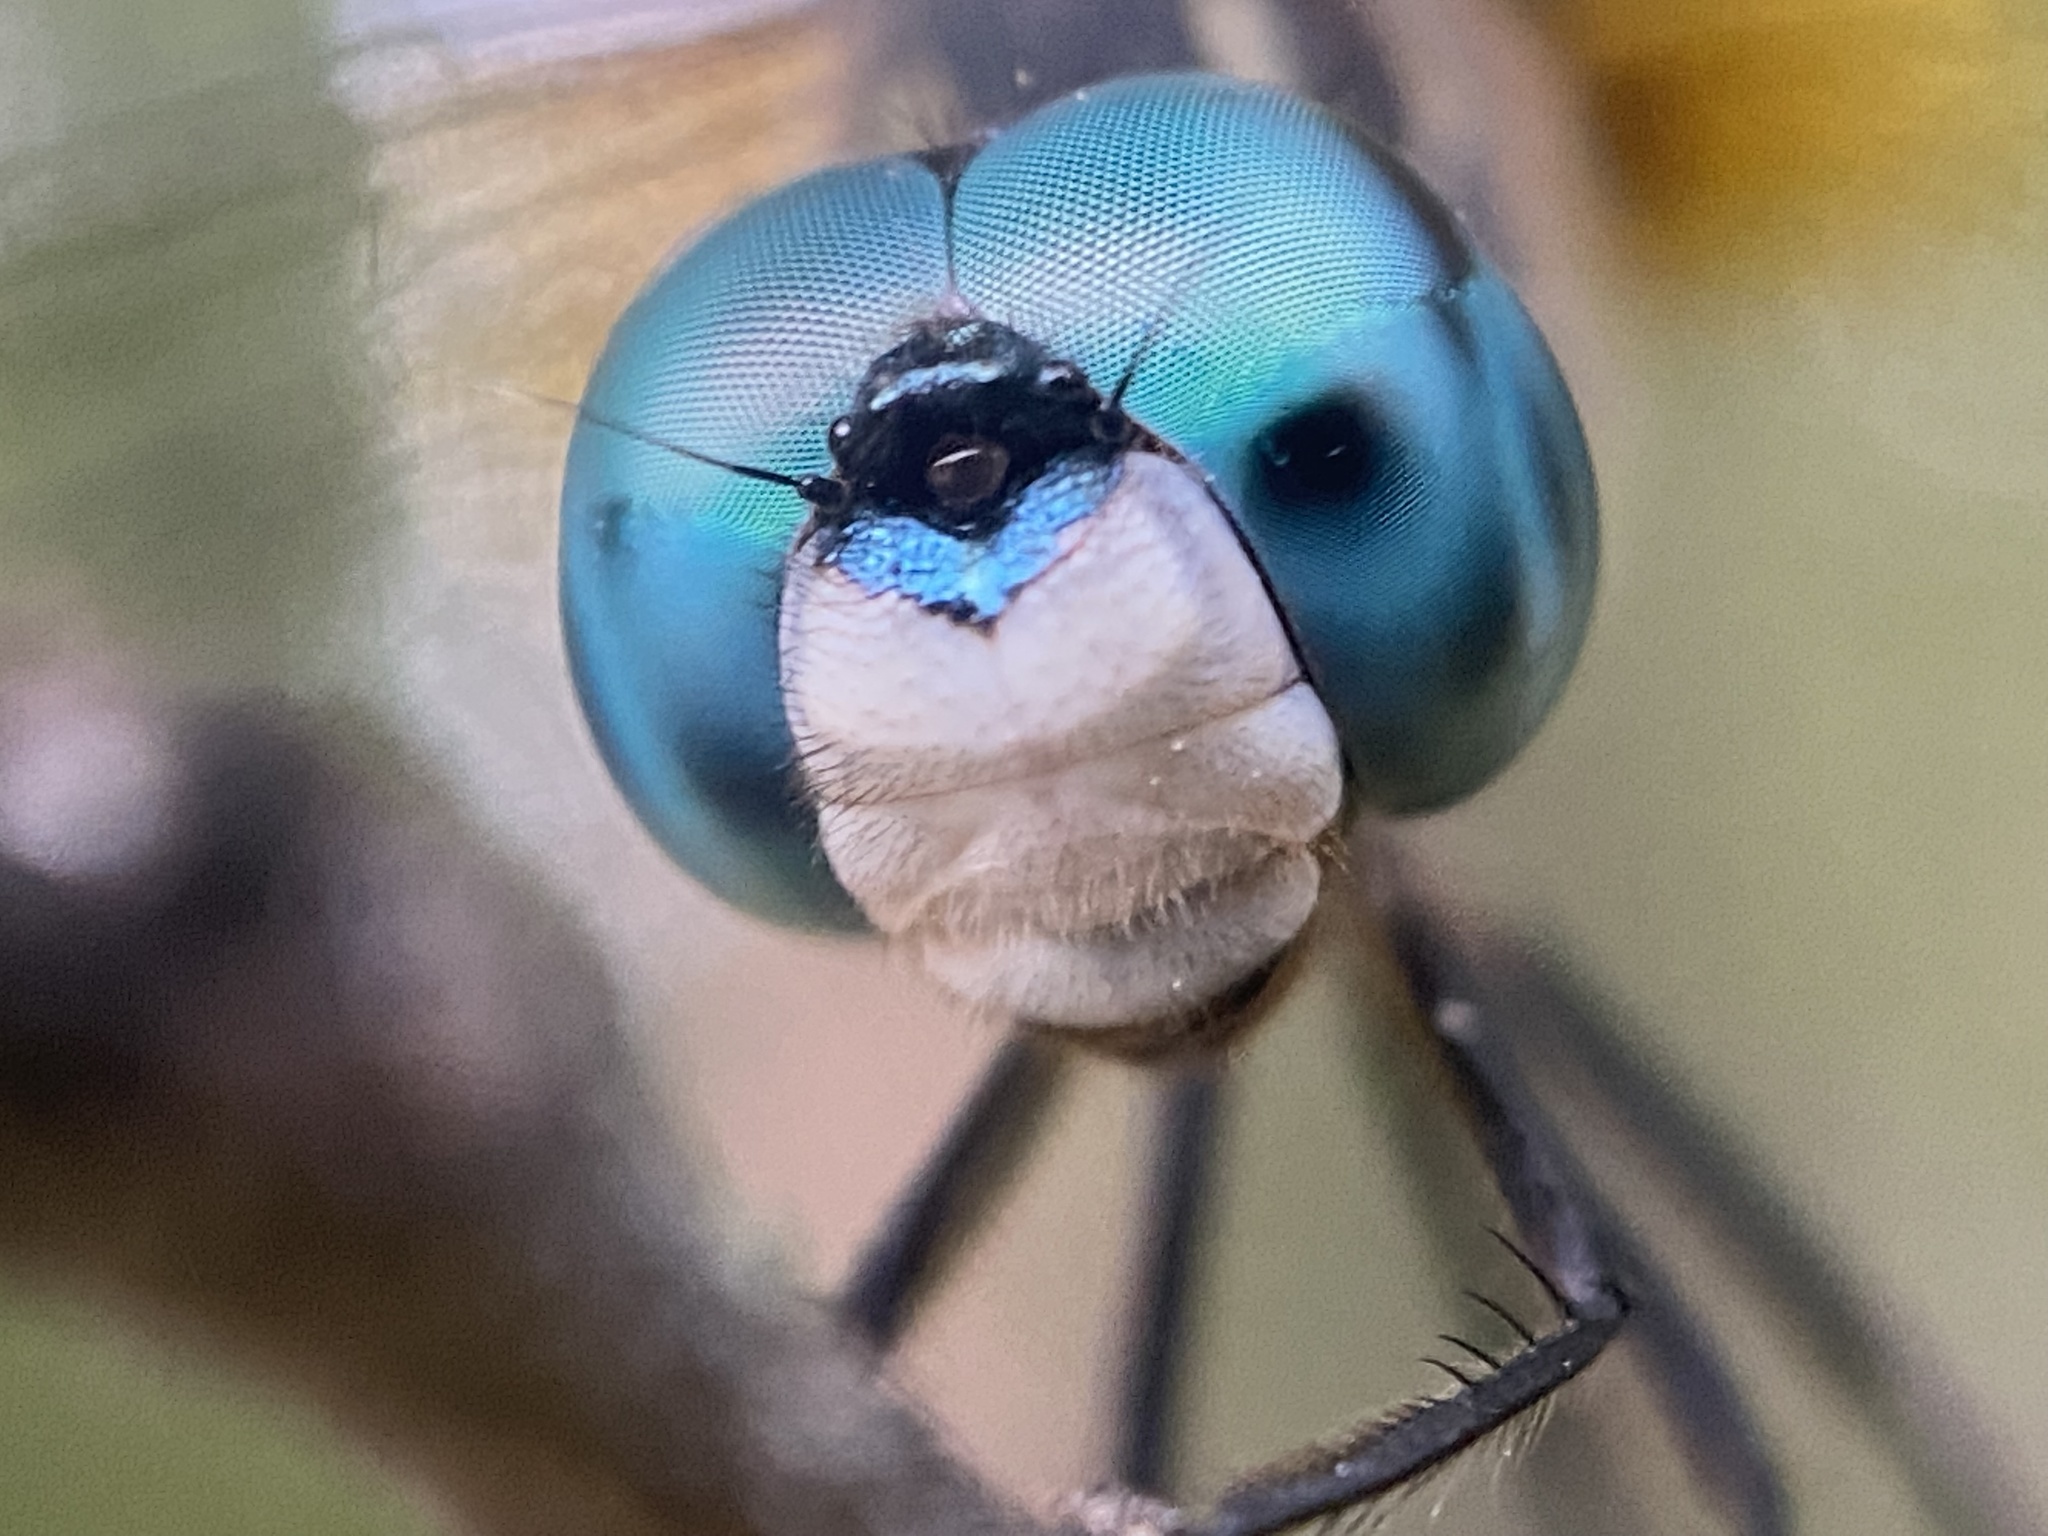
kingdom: Animalia
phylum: Arthropoda
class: Insecta
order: Odonata
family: Libellulidae
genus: Pachydiplax
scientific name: Pachydiplax longipennis
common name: Blue dasher
